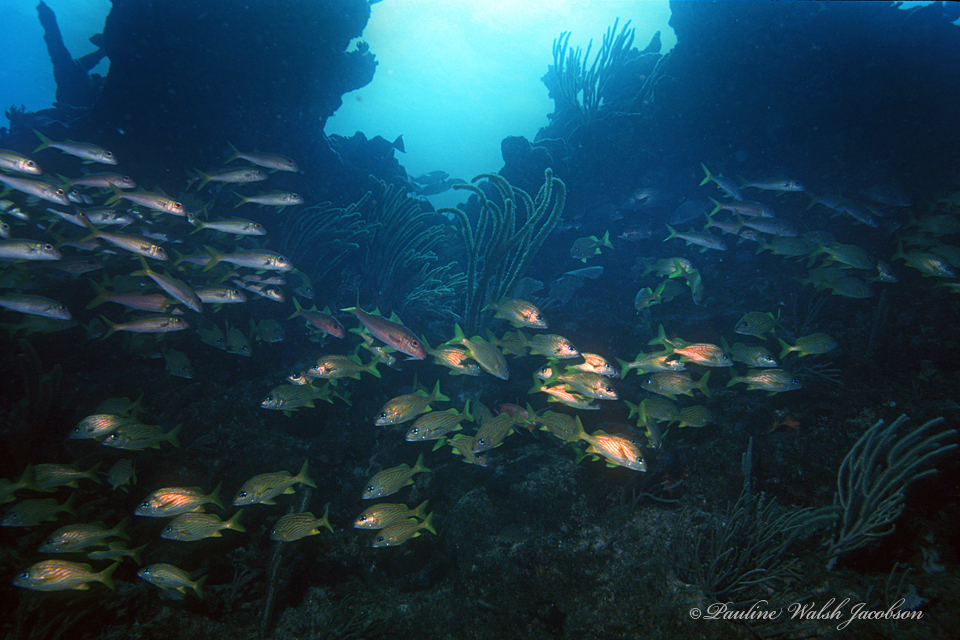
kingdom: Animalia
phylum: Chordata
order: Perciformes
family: Mullidae
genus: Mulloidichthys
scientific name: Mulloidichthys martinicus
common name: Yellow goatfish
